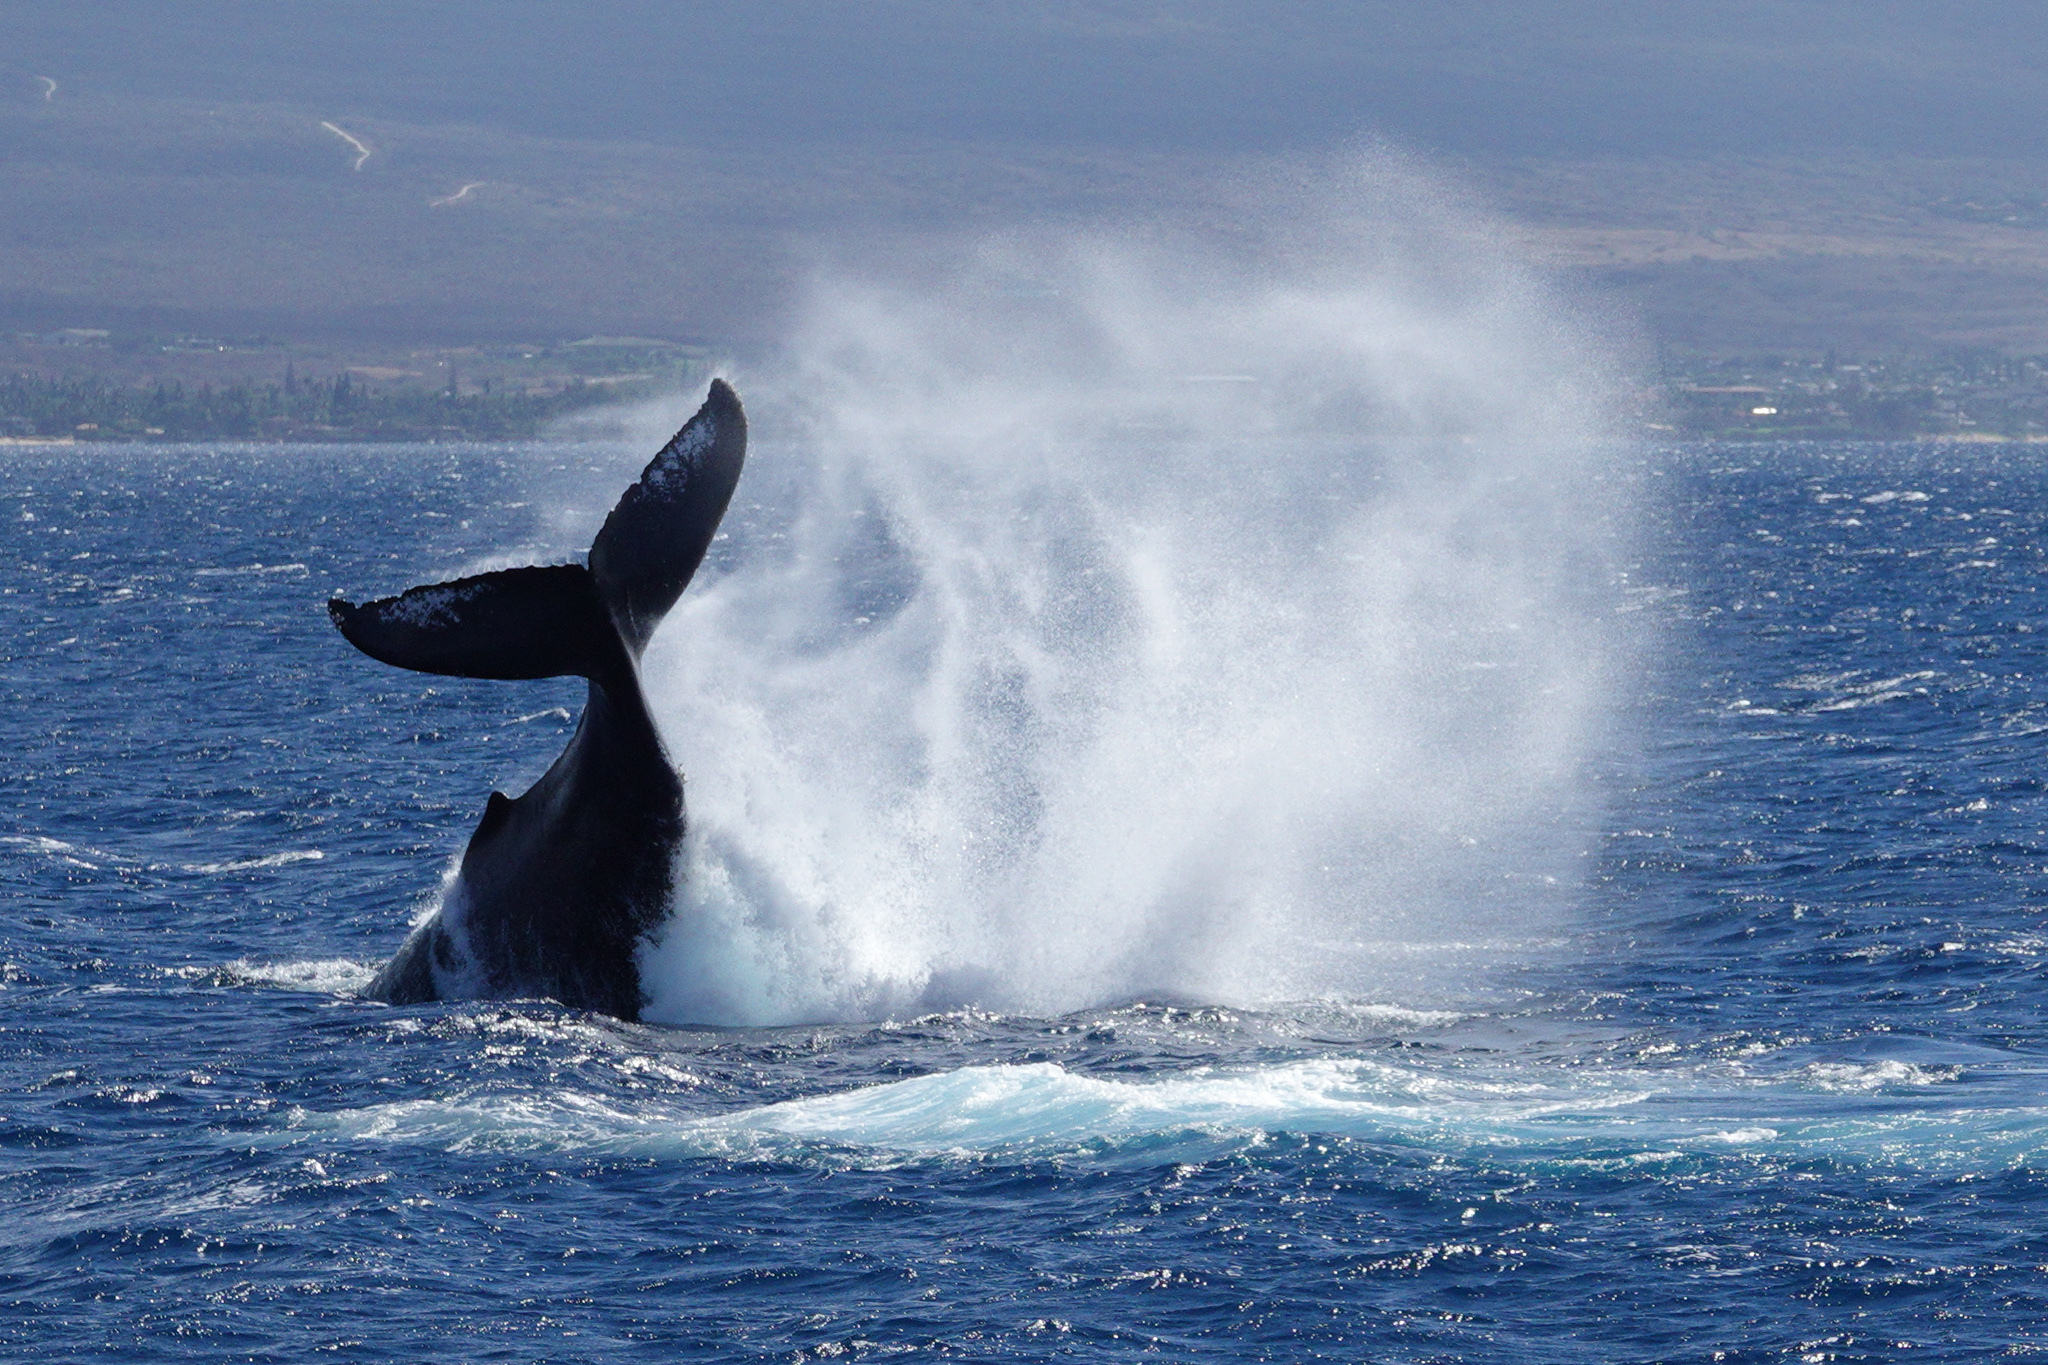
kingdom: Animalia
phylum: Chordata
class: Mammalia
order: Cetacea
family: Balaenopteridae
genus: Megaptera
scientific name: Megaptera novaeangliae
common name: Humpback whale
